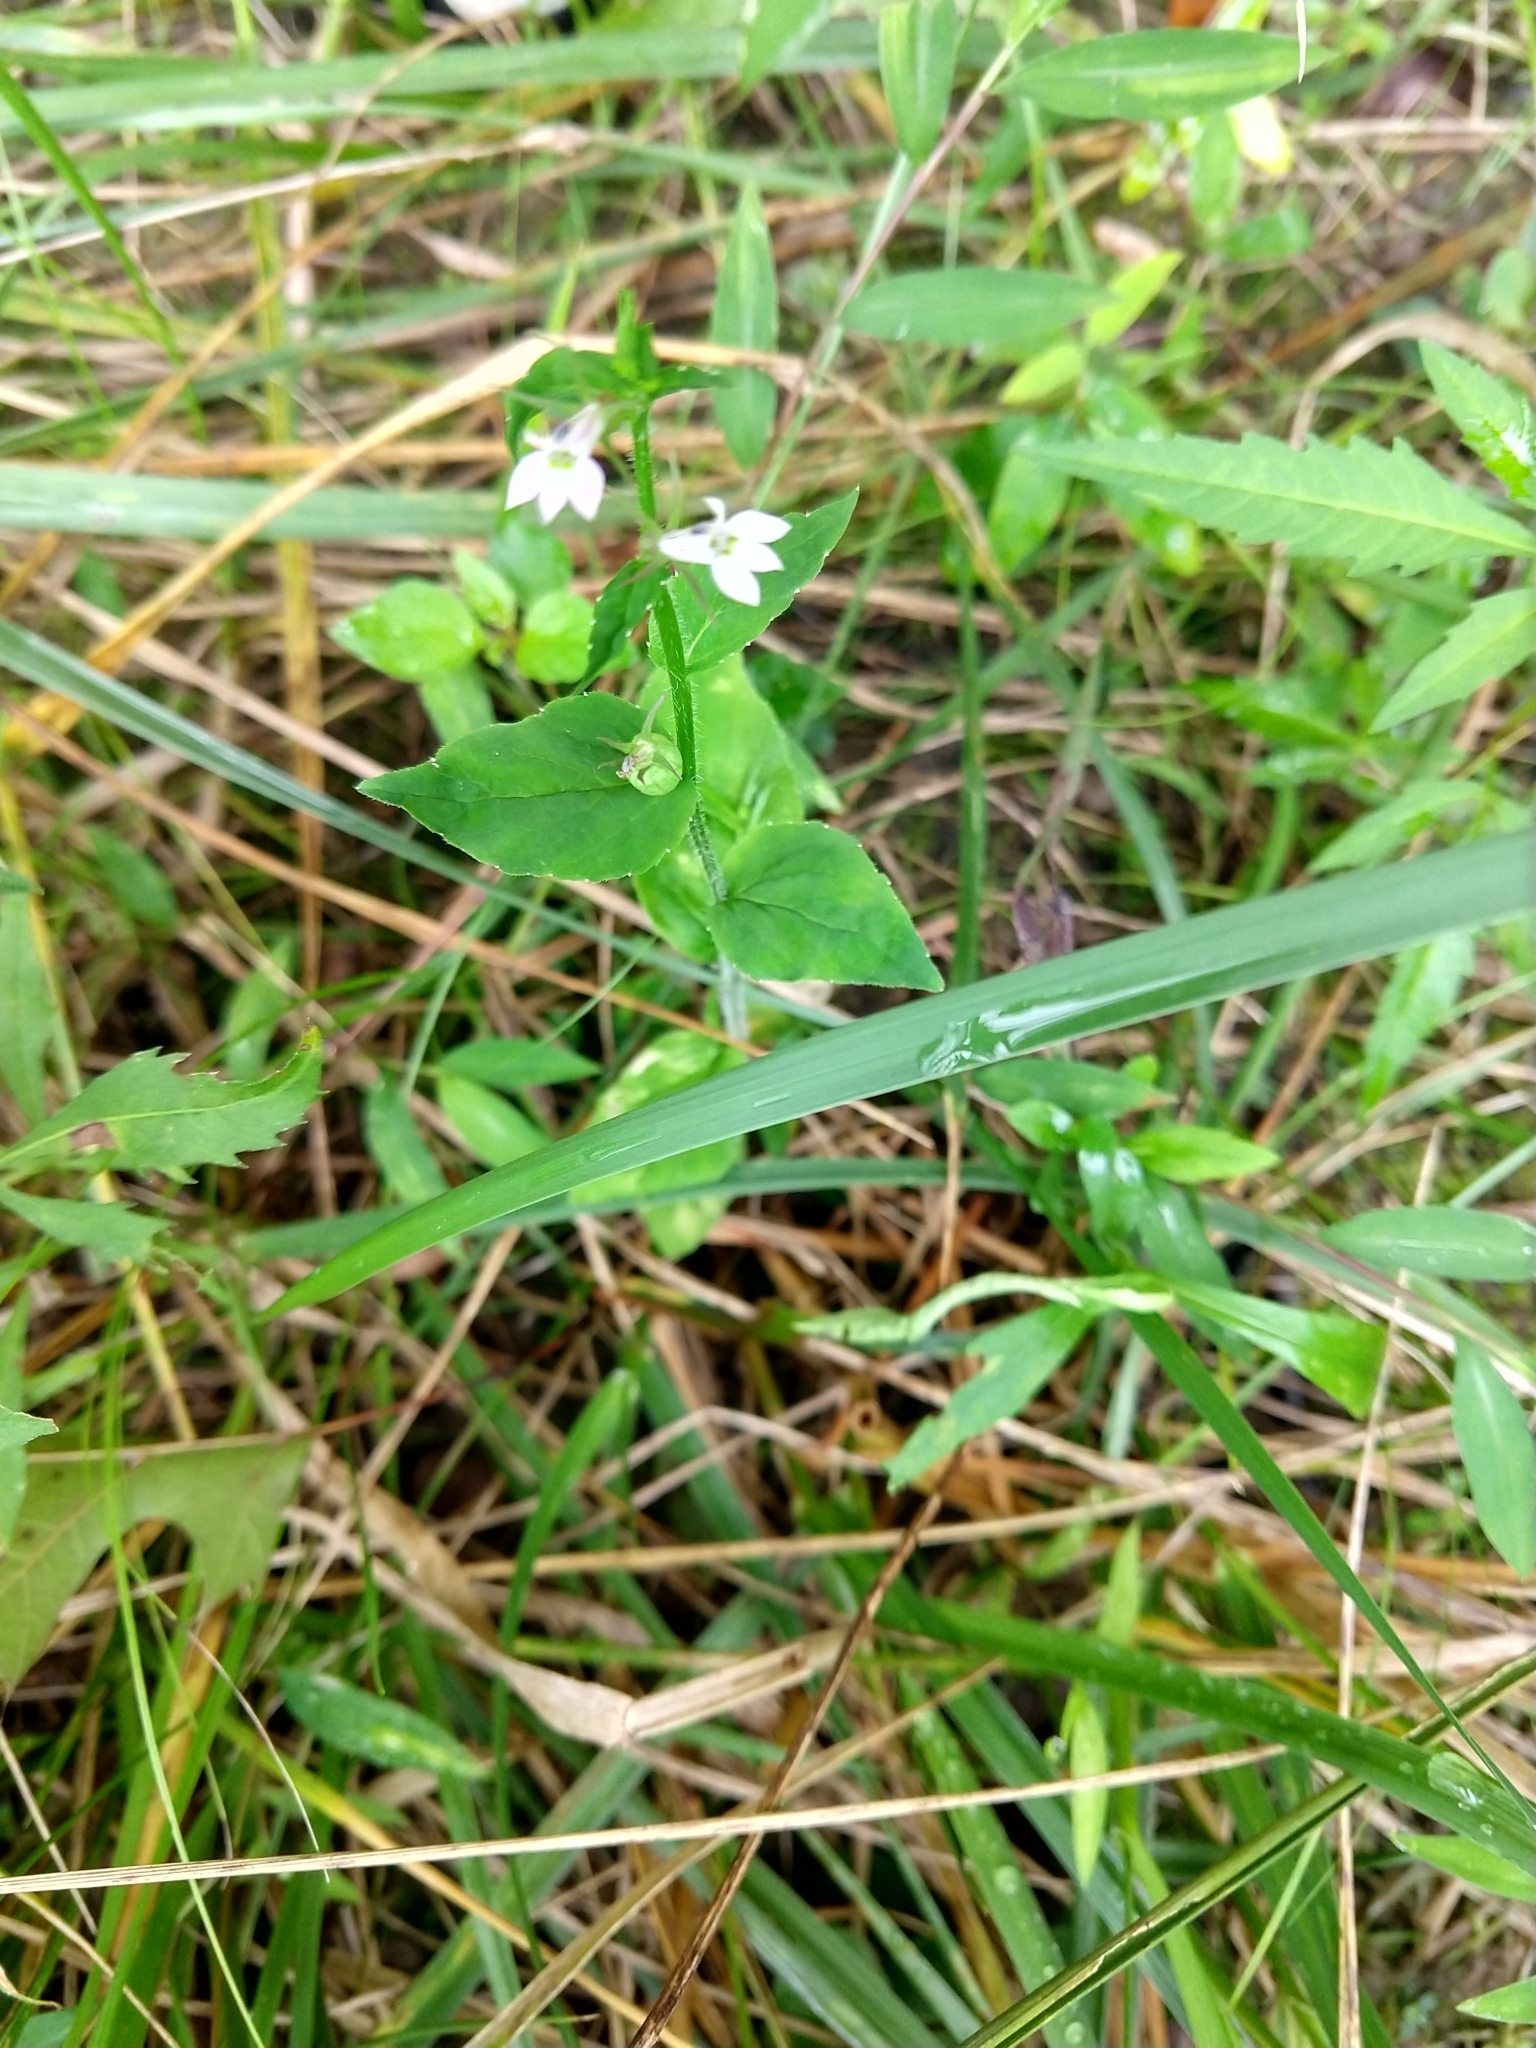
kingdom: Plantae
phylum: Tracheophyta
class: Magnoliopsida
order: Asterales
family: Campanulaceae
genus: Lobelia
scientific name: Lobelia inflata
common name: Indian tobacco
